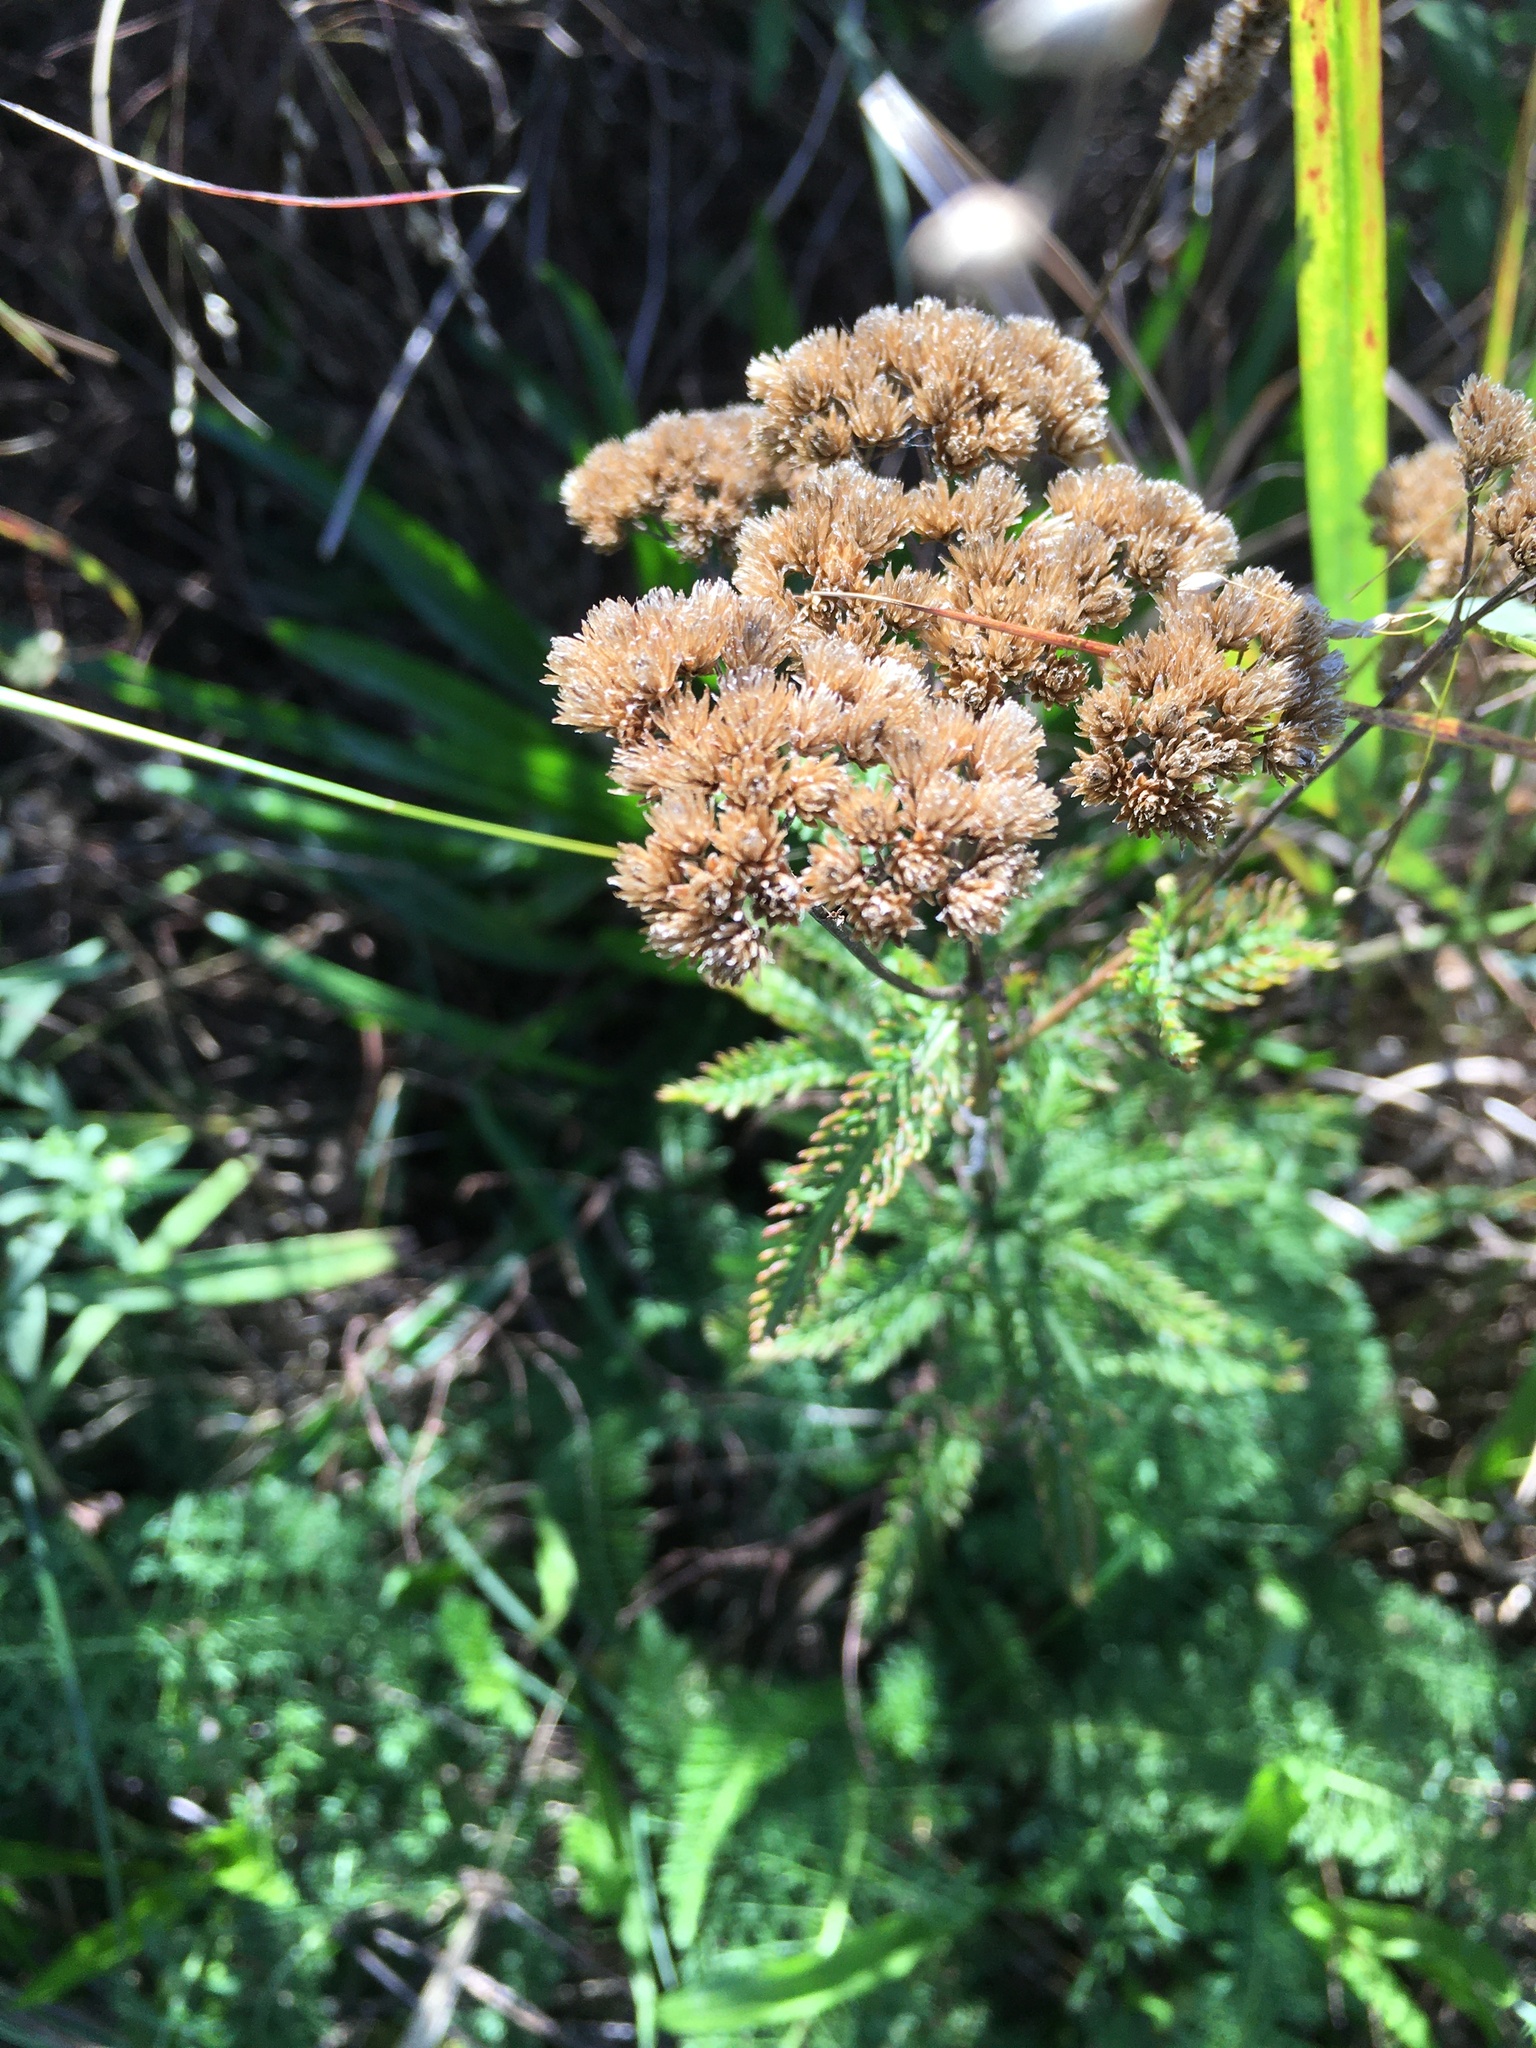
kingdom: Plantae
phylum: Tracheophyta
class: Magnoliopsida
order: Asterales
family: Asteraceae
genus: Achillea
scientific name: Achillea millefolium
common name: Yarrow
